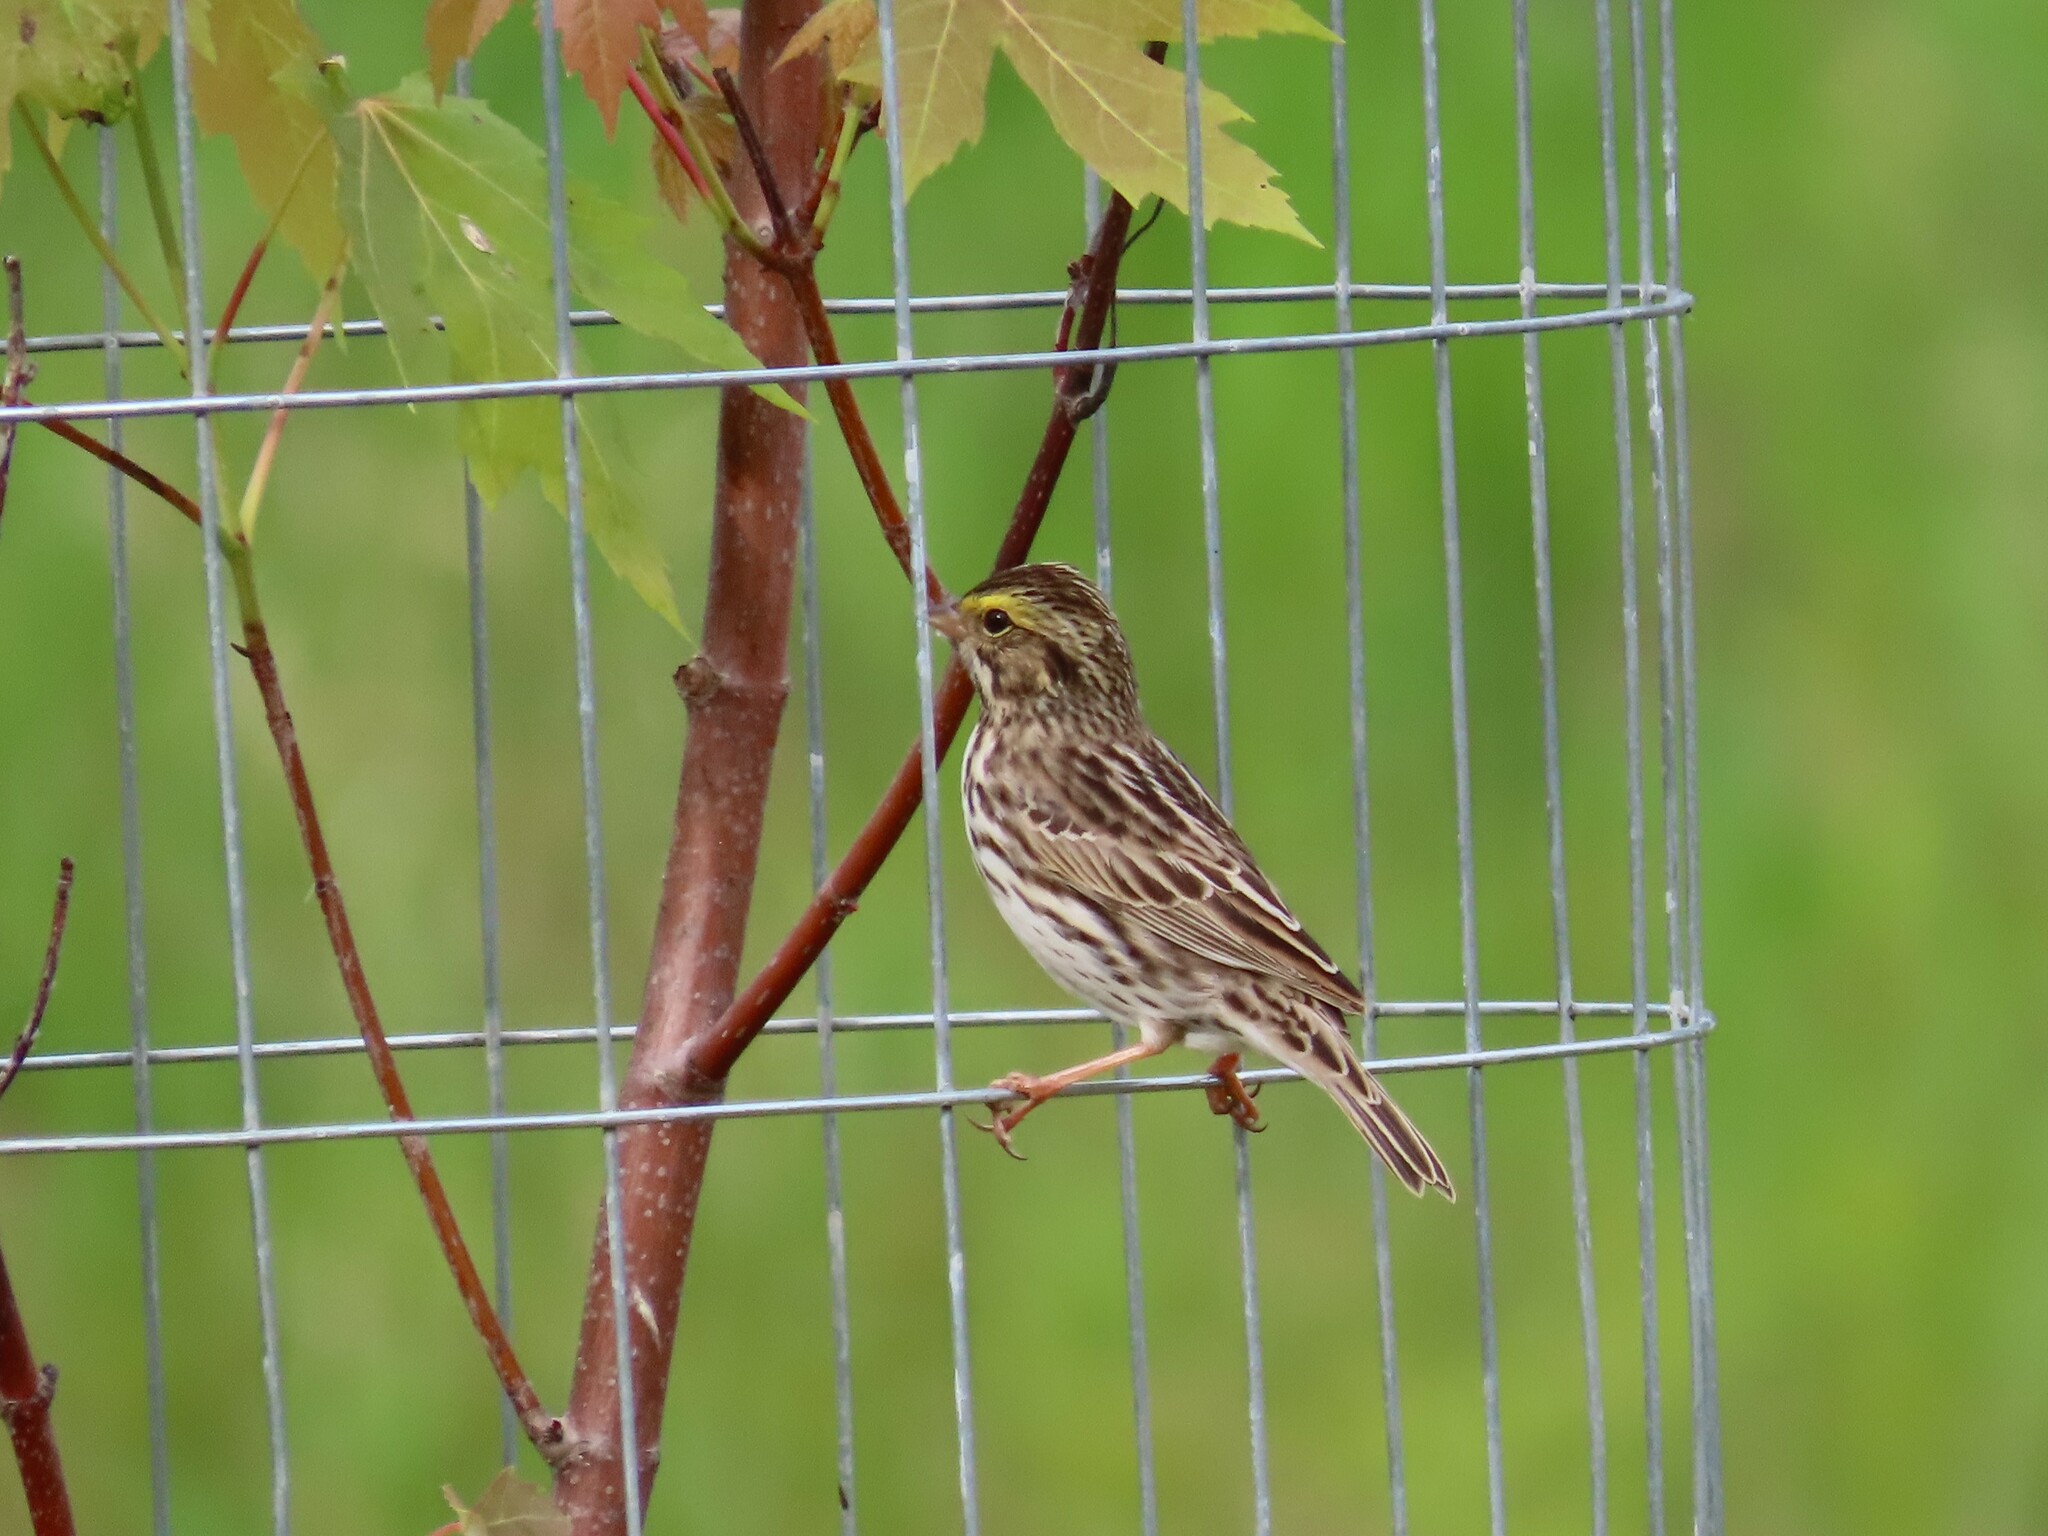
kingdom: Animalia
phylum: Chordata
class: Aves
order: Passeriformes
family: Passerellidae
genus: Passerculus
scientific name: Passerculus sandwichensis
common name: Savannah sparrow
